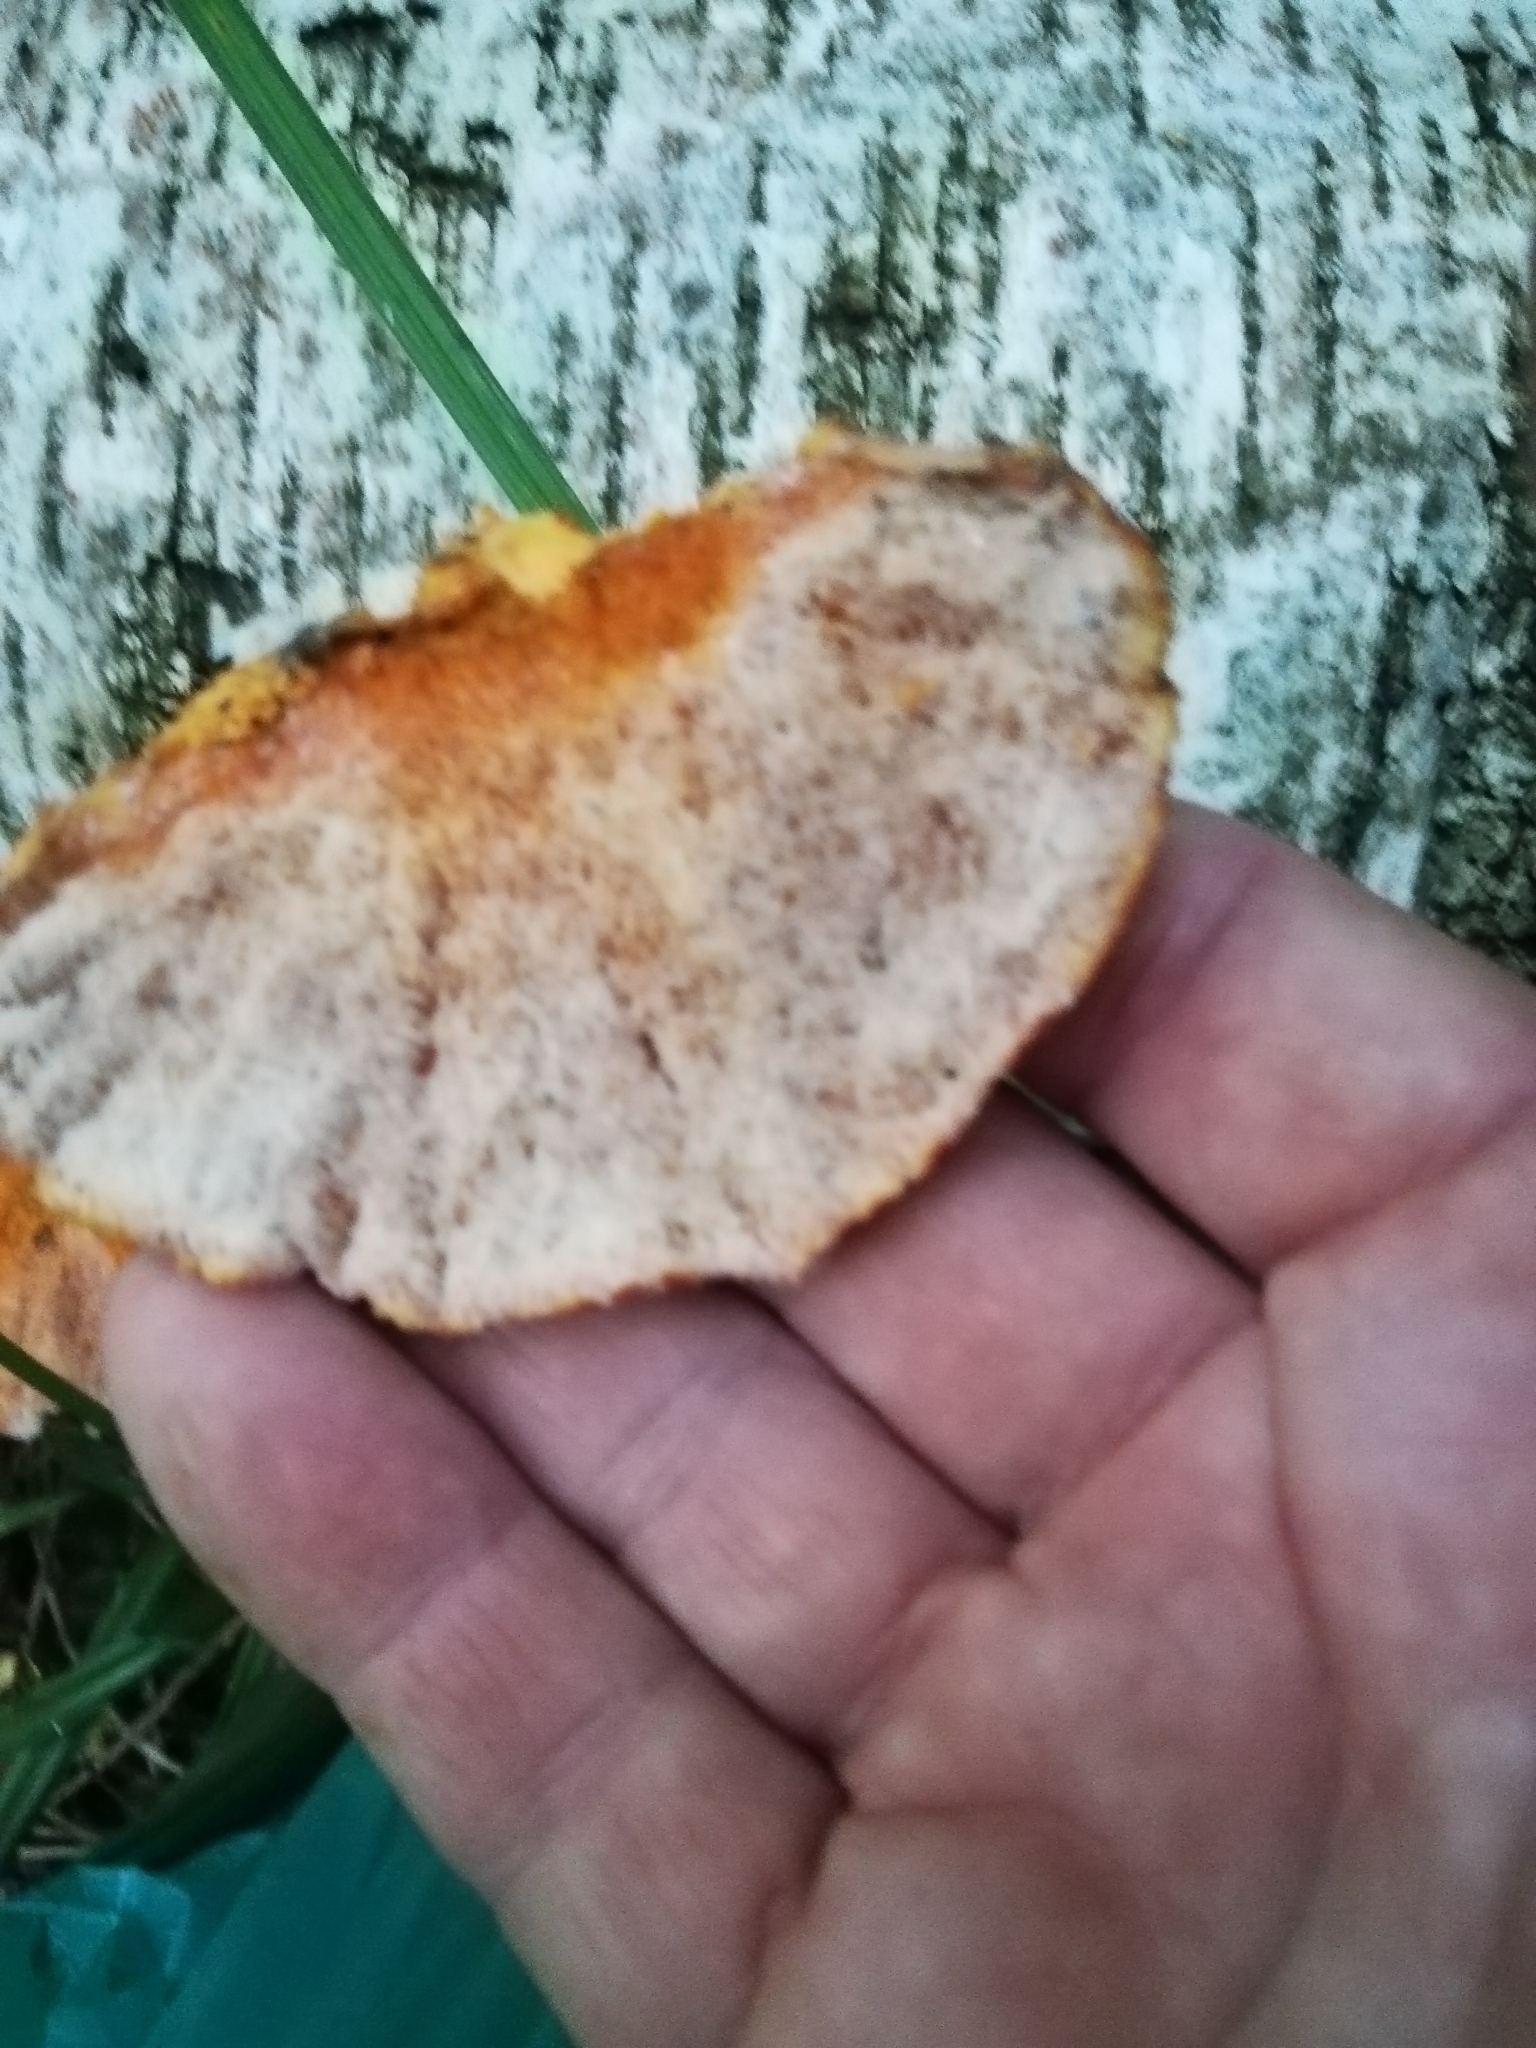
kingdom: Fungi
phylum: Basidiomycota
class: Agaricomycetes
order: Polyporales
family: Pycnoporellaceae
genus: Pycnoporellus
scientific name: Pycnoporellus fulgens
